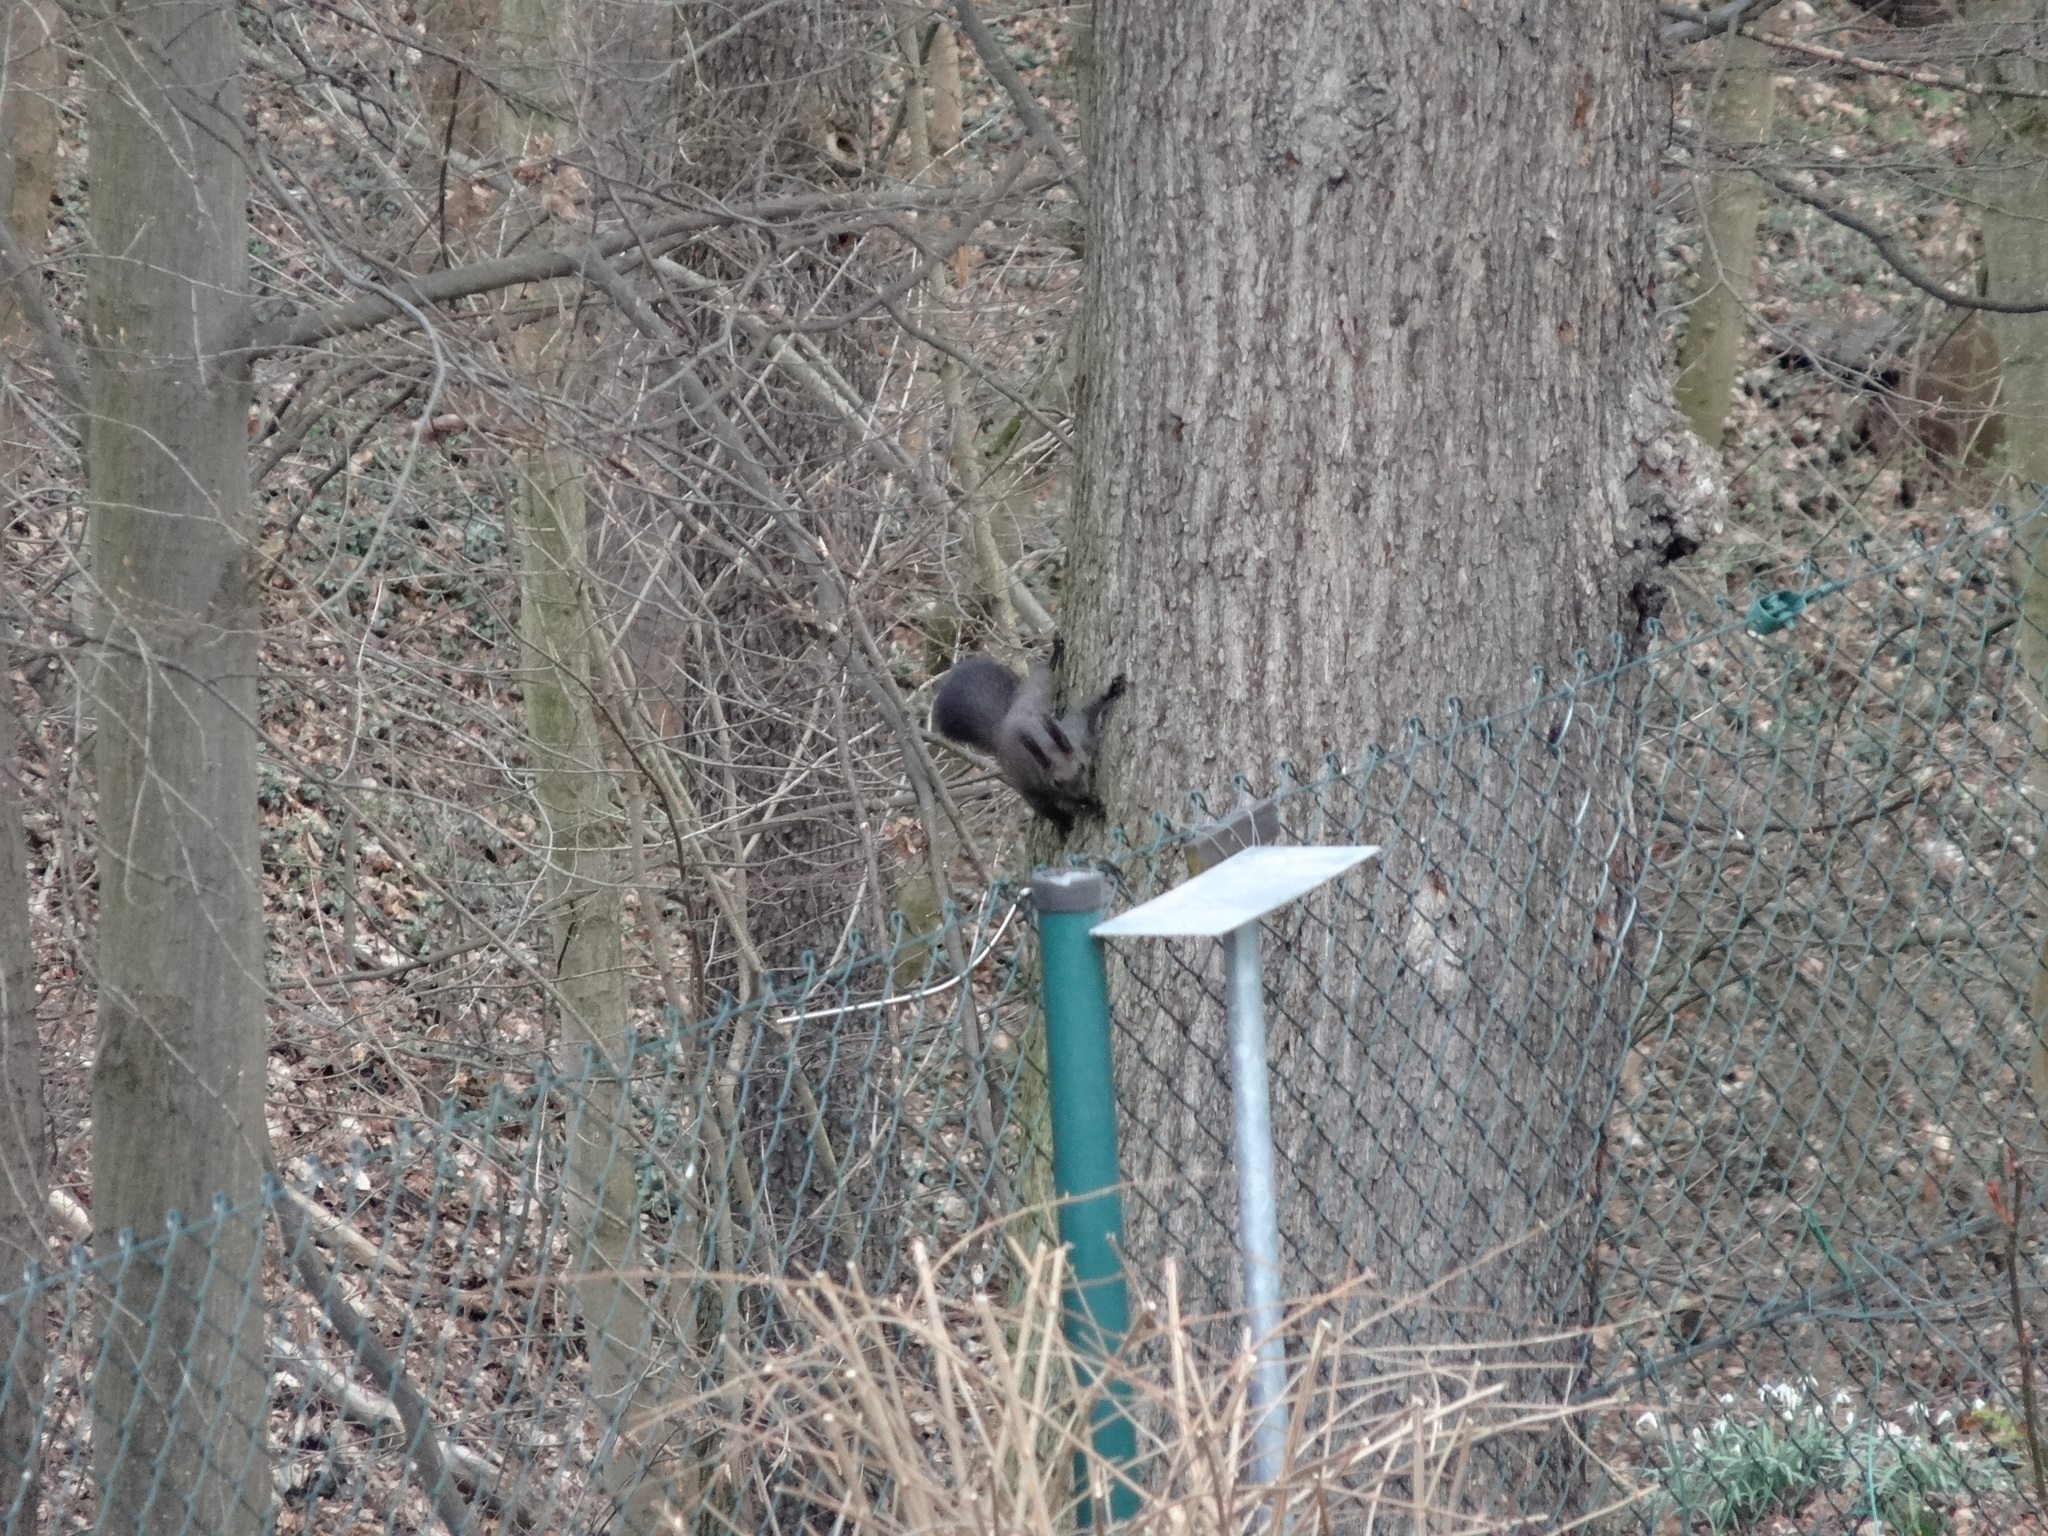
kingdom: Animalia
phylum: Chordata
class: Mammalia
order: Rodentia
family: Sciuridae
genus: Sciurus
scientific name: Sciurus vulgaris
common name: Eurasian red squirrel
